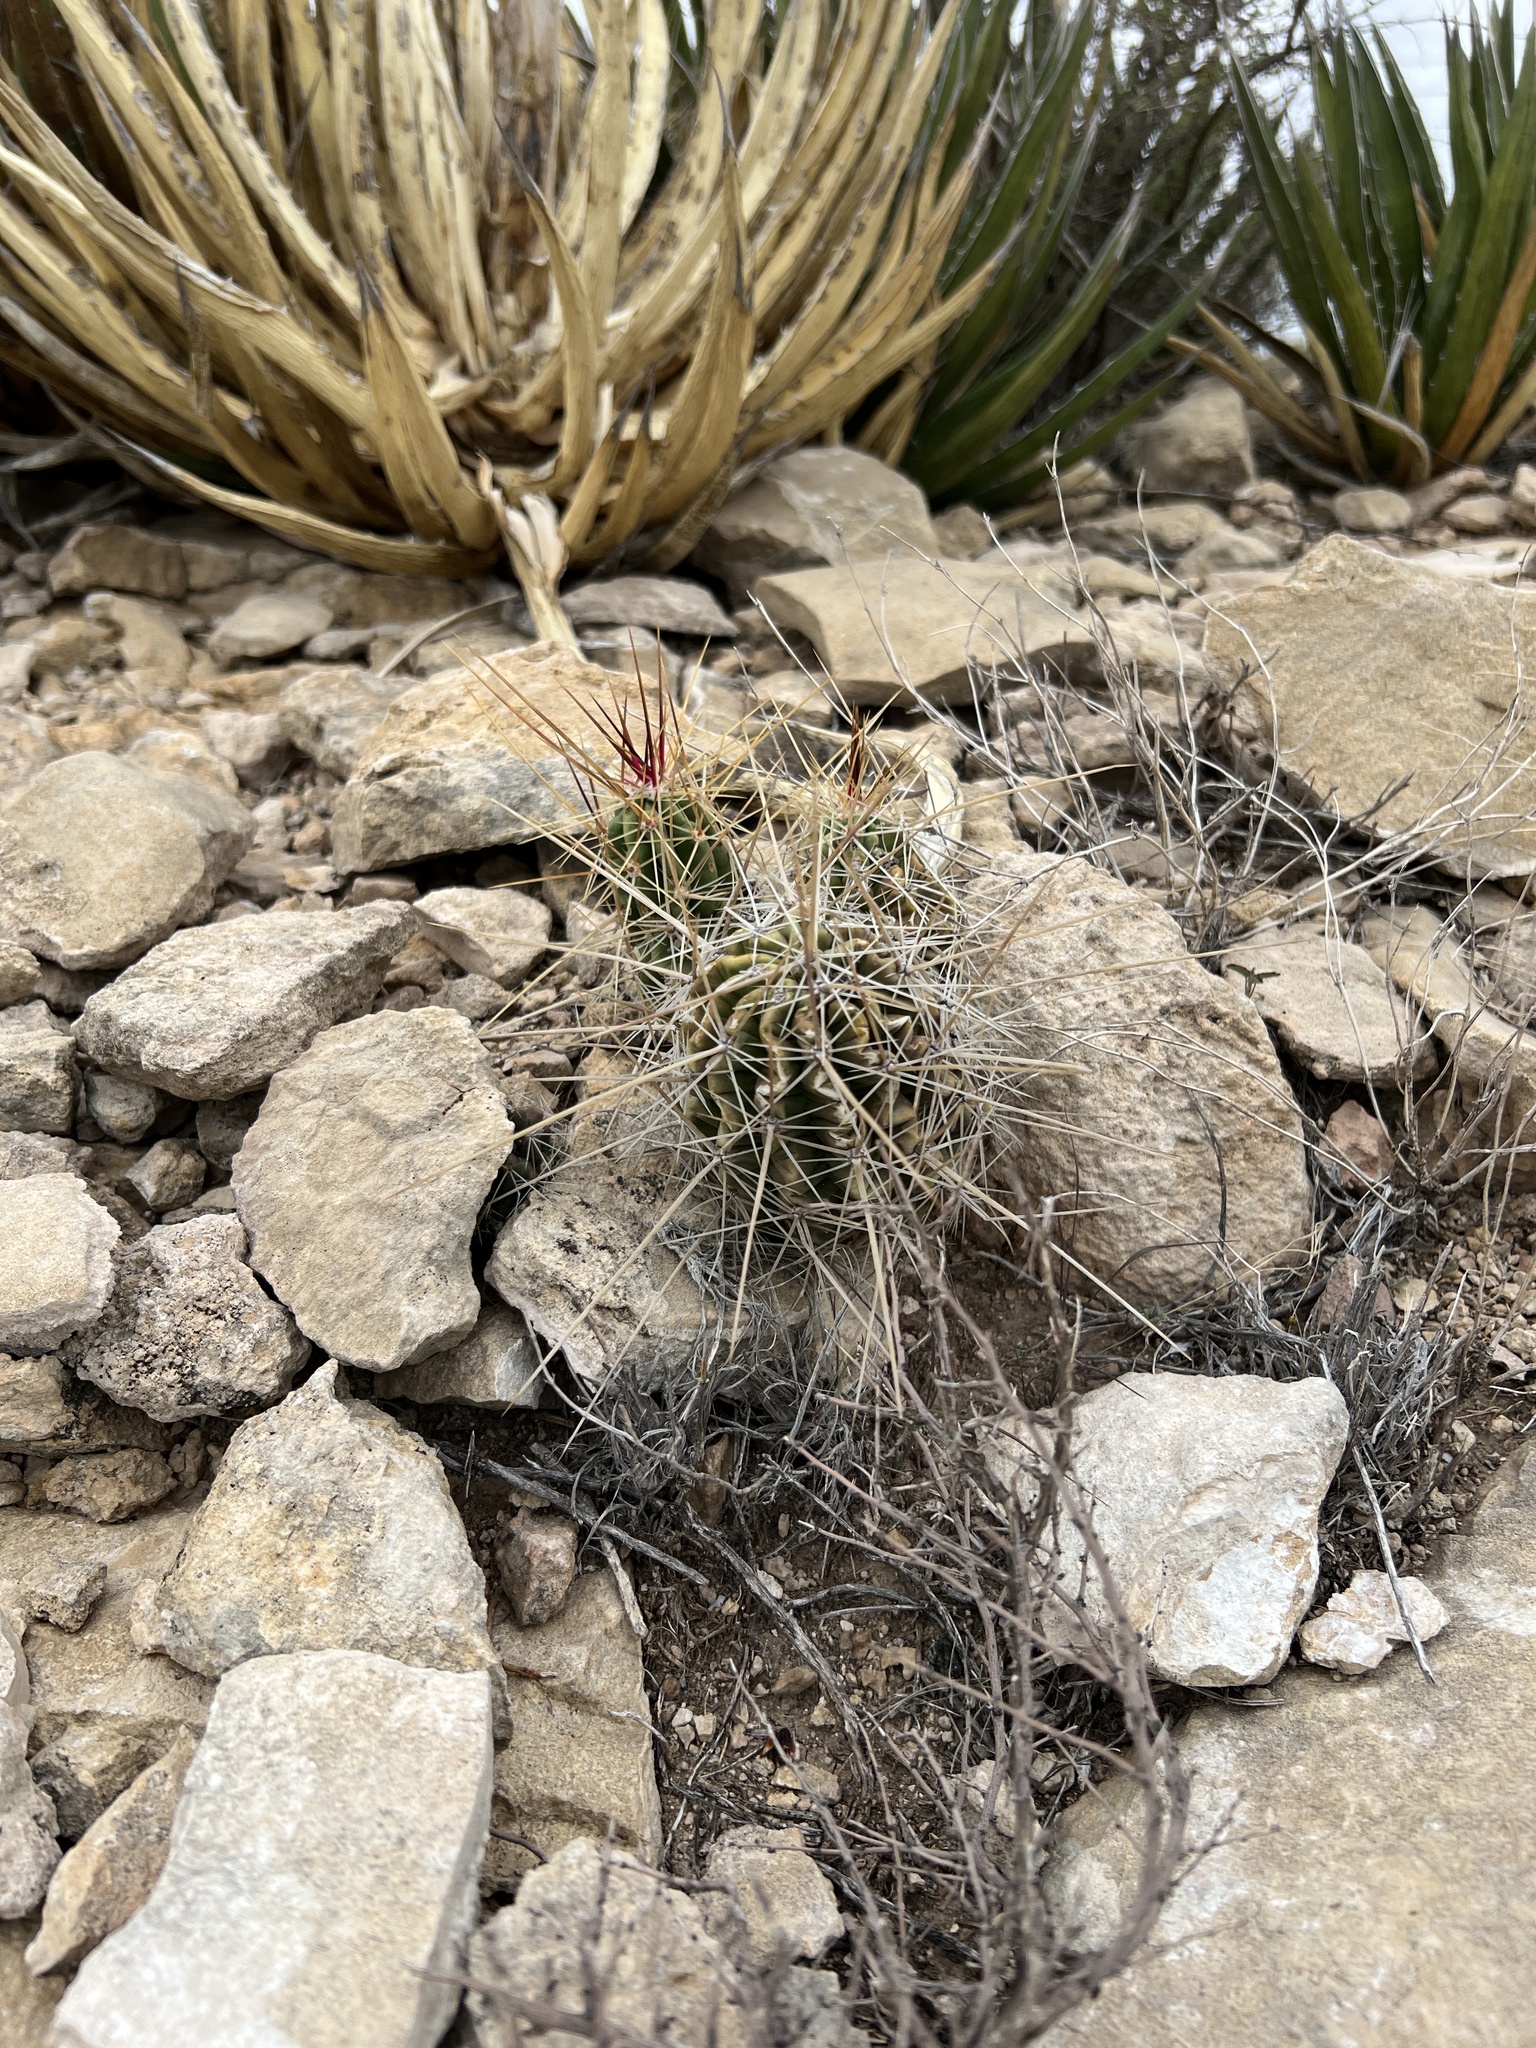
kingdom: Plantae
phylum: Tracheophyta
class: Magnoliopsida
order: Caryophyllales
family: Cactaceae
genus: Echinocereus
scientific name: Echinocereus enneacanthus
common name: Pitaya
